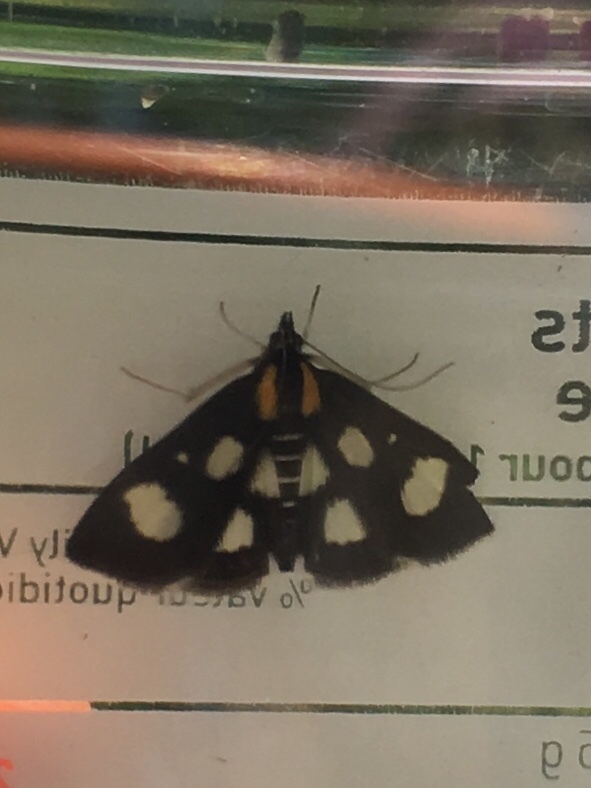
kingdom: Animalia
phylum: Arthropoda
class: Insecta
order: Lepidoptera
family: Crambidae
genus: Anania
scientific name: Anania funebris
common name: White-spotted sable moth
